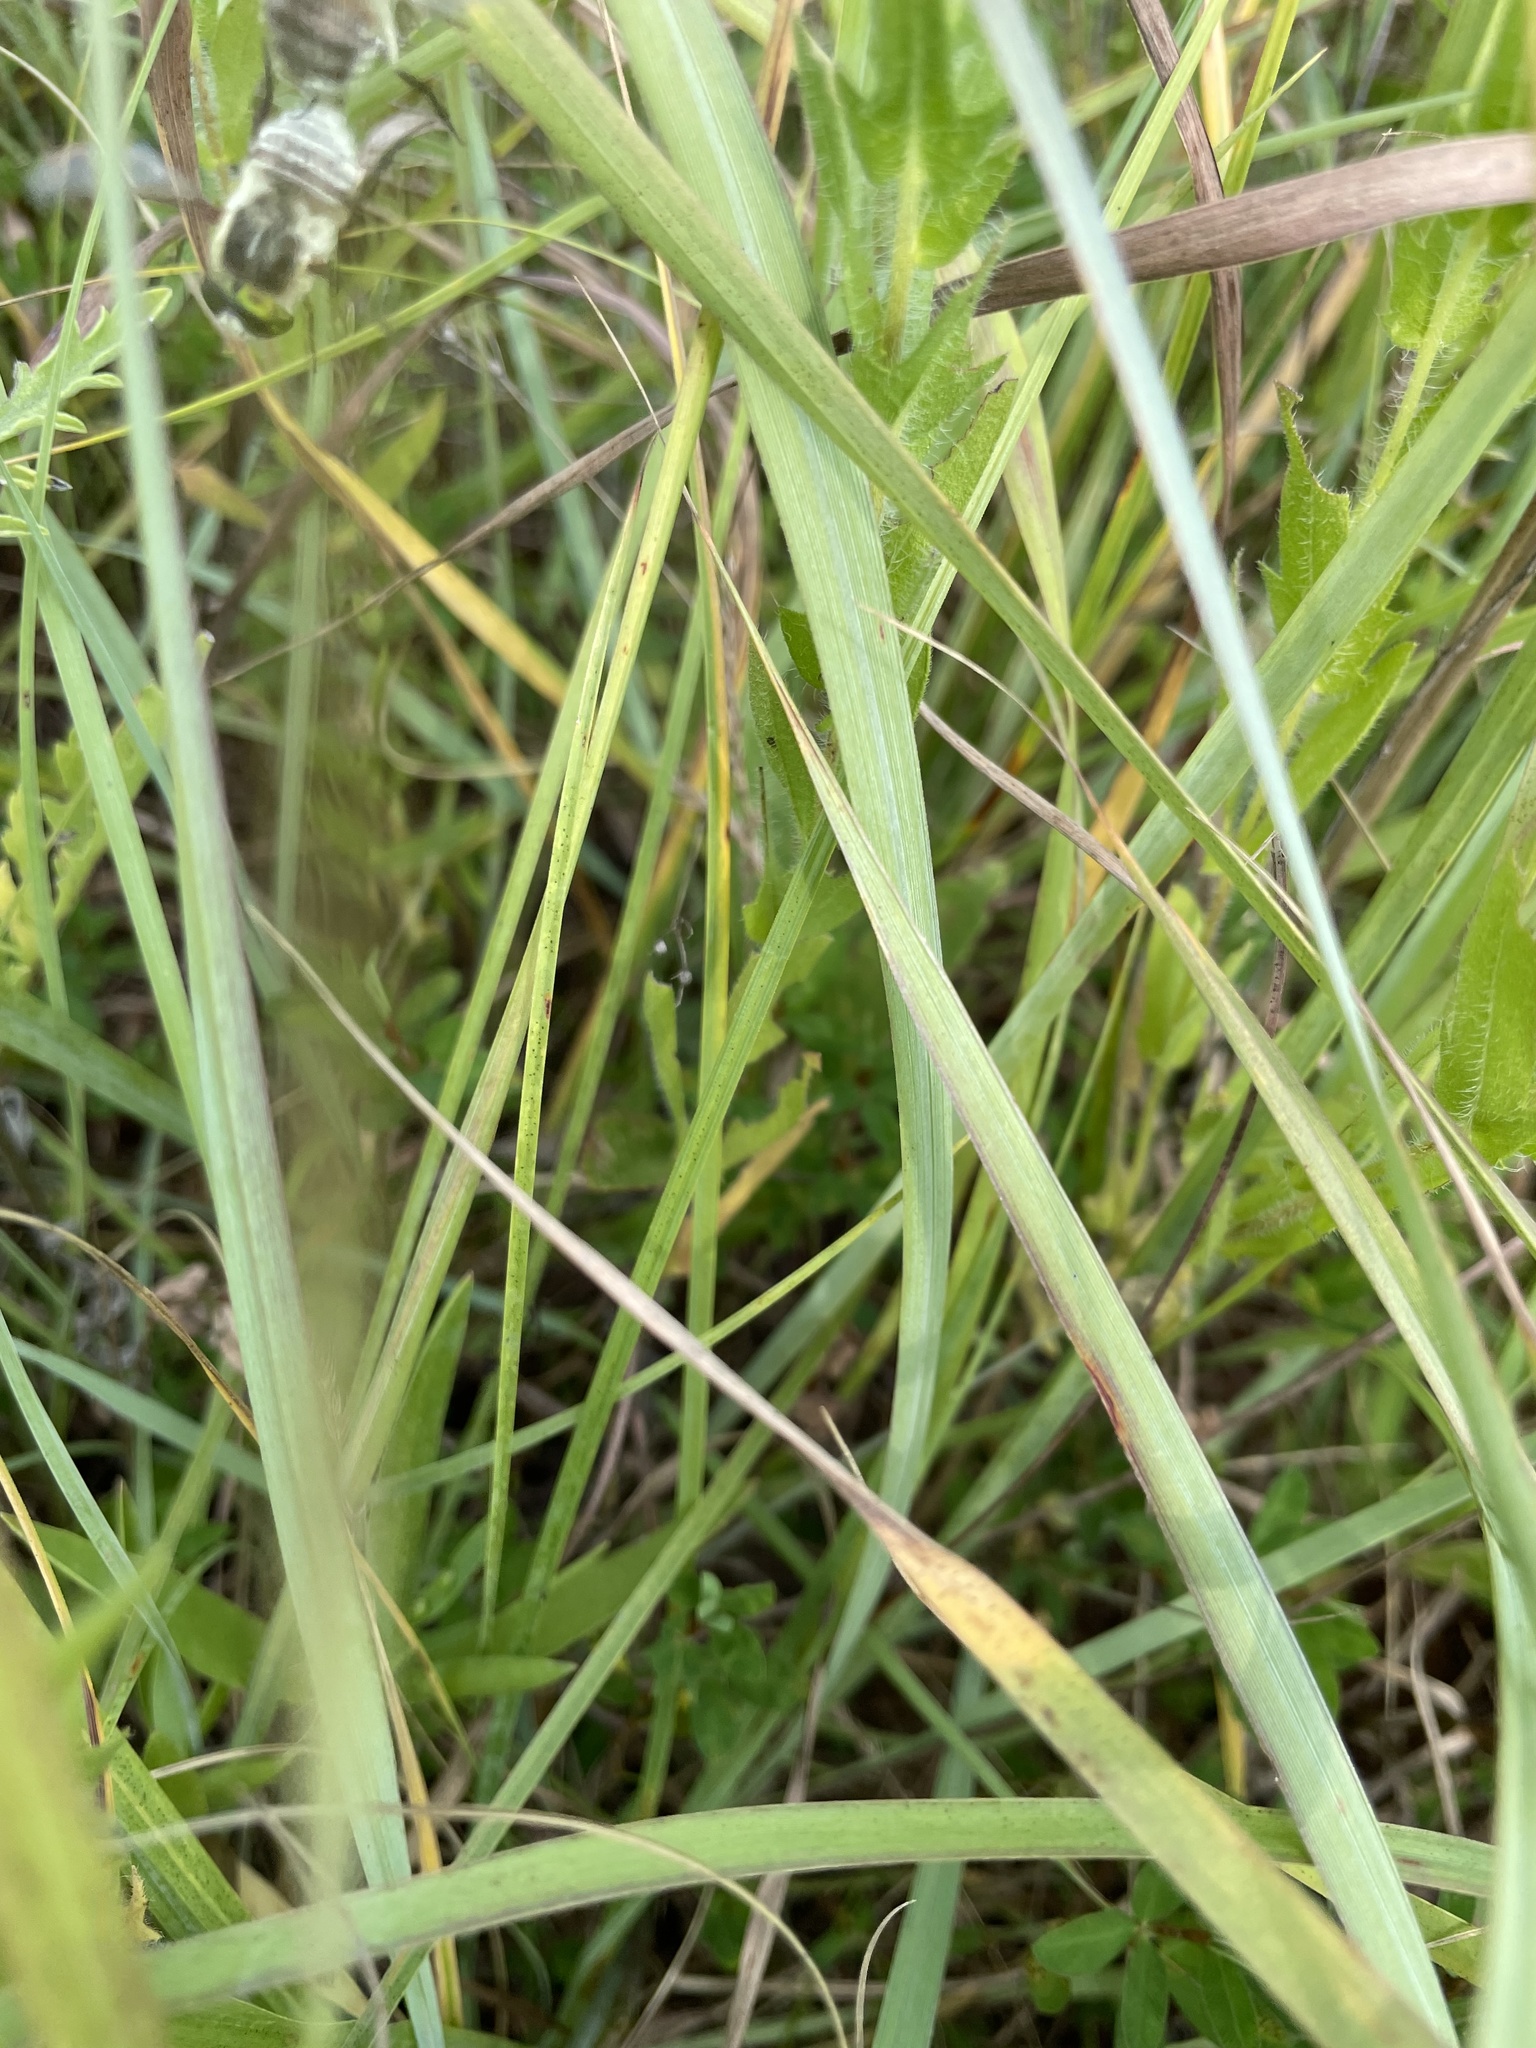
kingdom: Animalia
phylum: Arthropoda
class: Insecta
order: Diptera
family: Nemestrinidae
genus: Neorhynchocephalus
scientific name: Neorhynchocephalus volaticus
